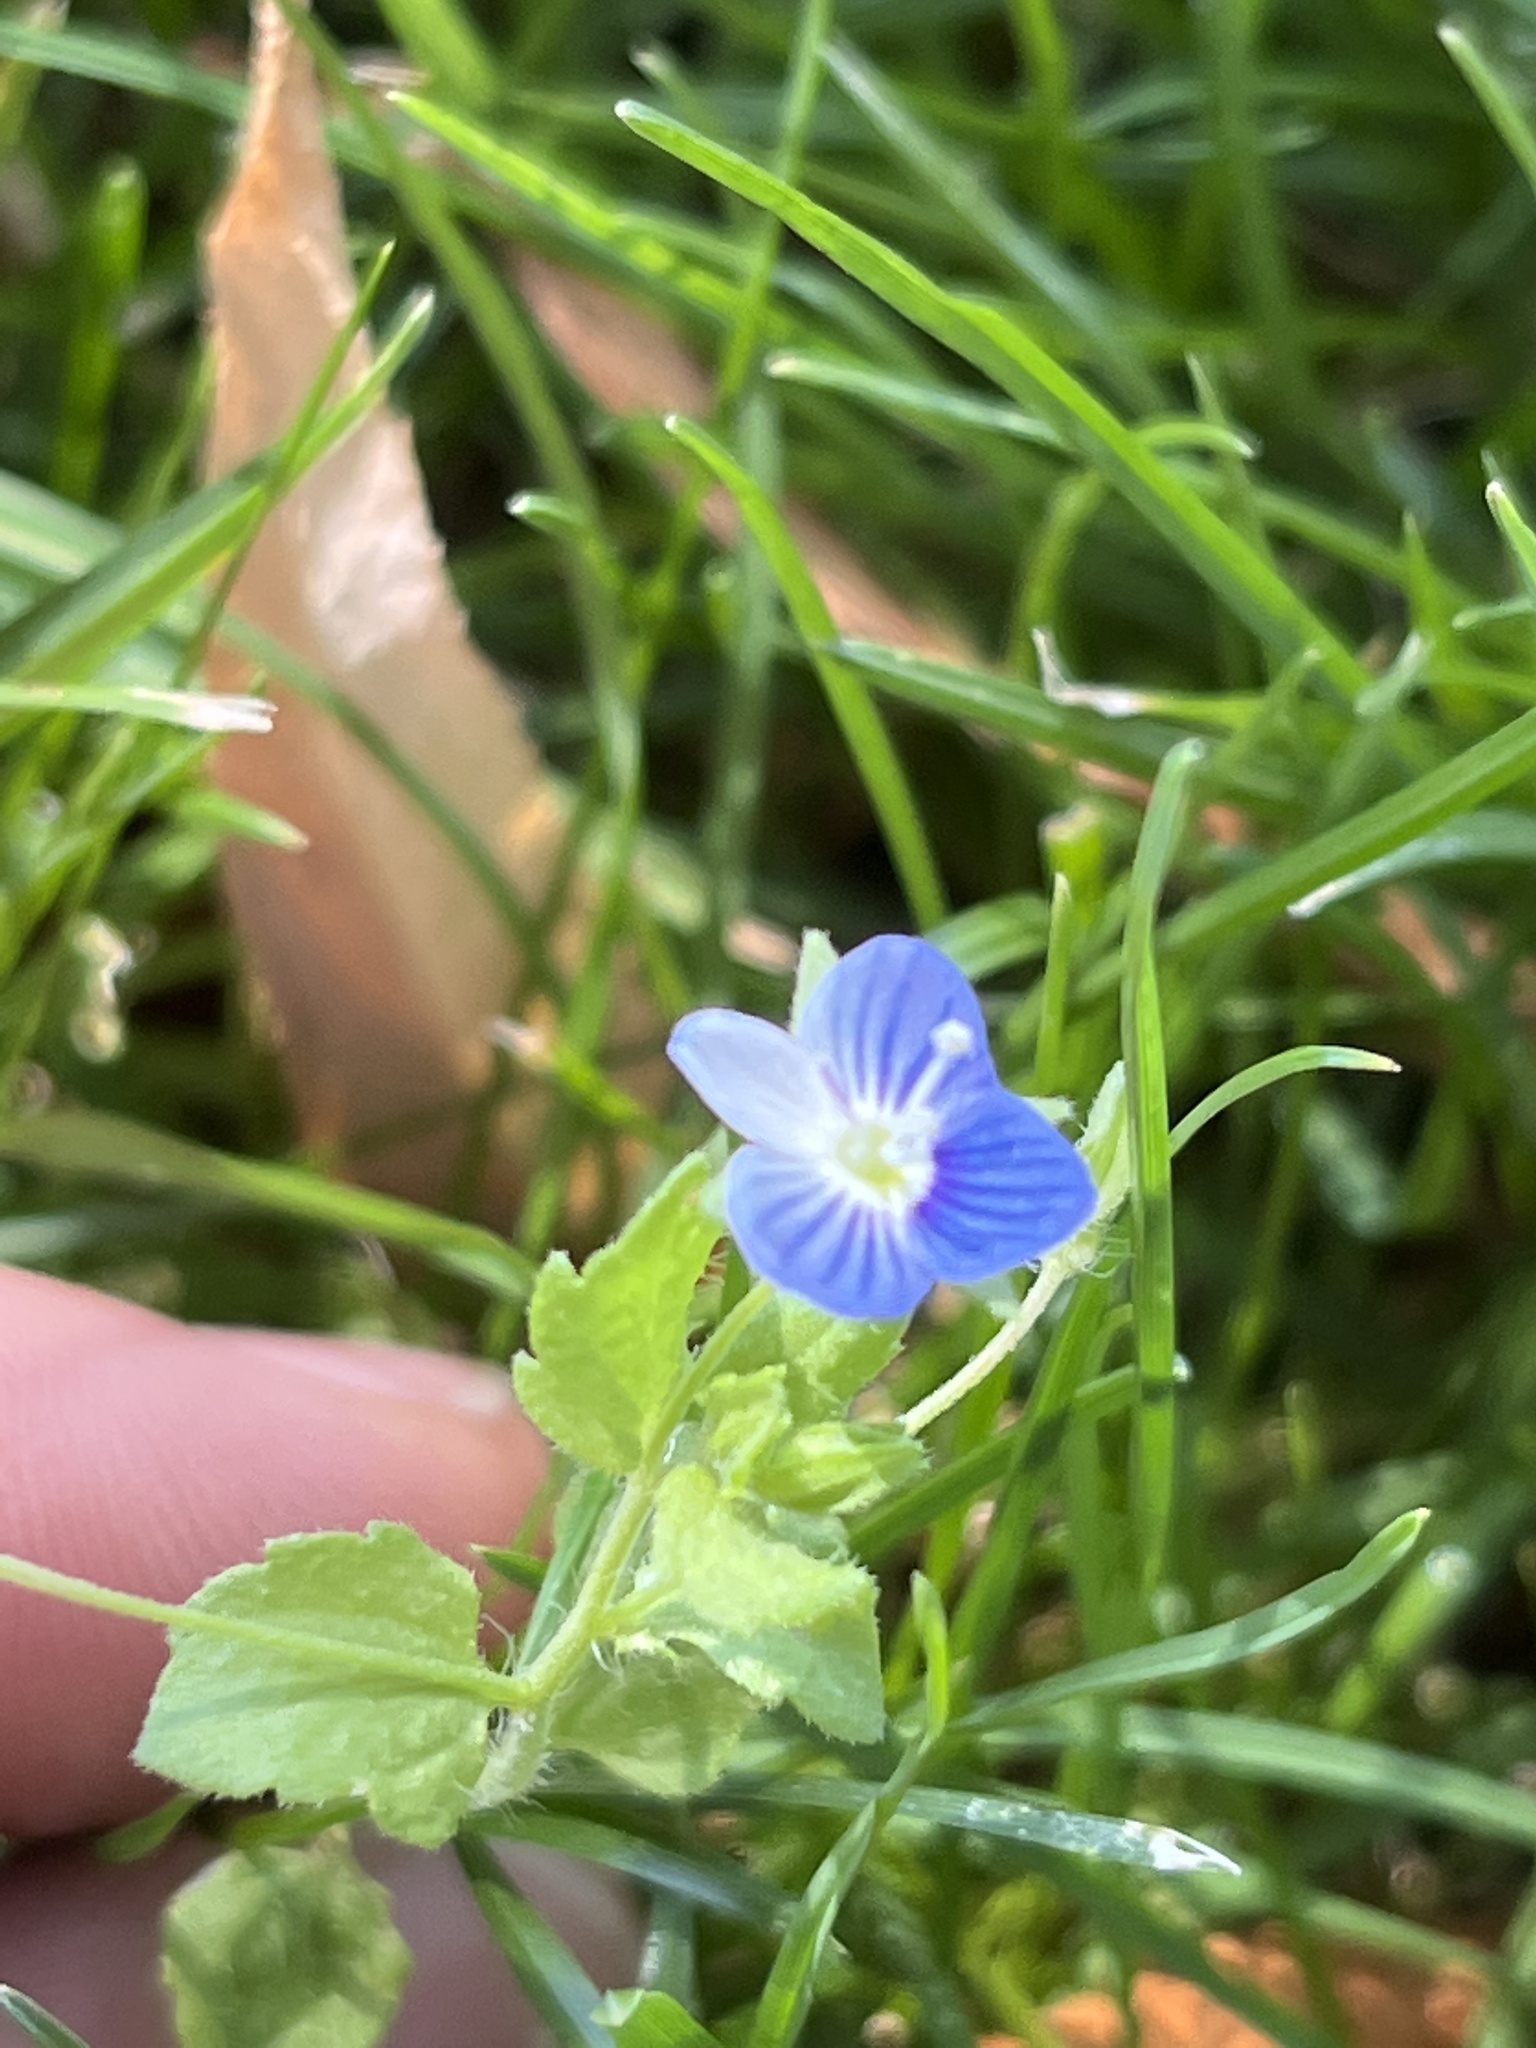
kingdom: Plantae
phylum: Tracheophyta
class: Magnoliopsida
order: Lamiales
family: Plantaginaceae
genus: Veronica
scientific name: Veronica persica
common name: Common field-speedwell
